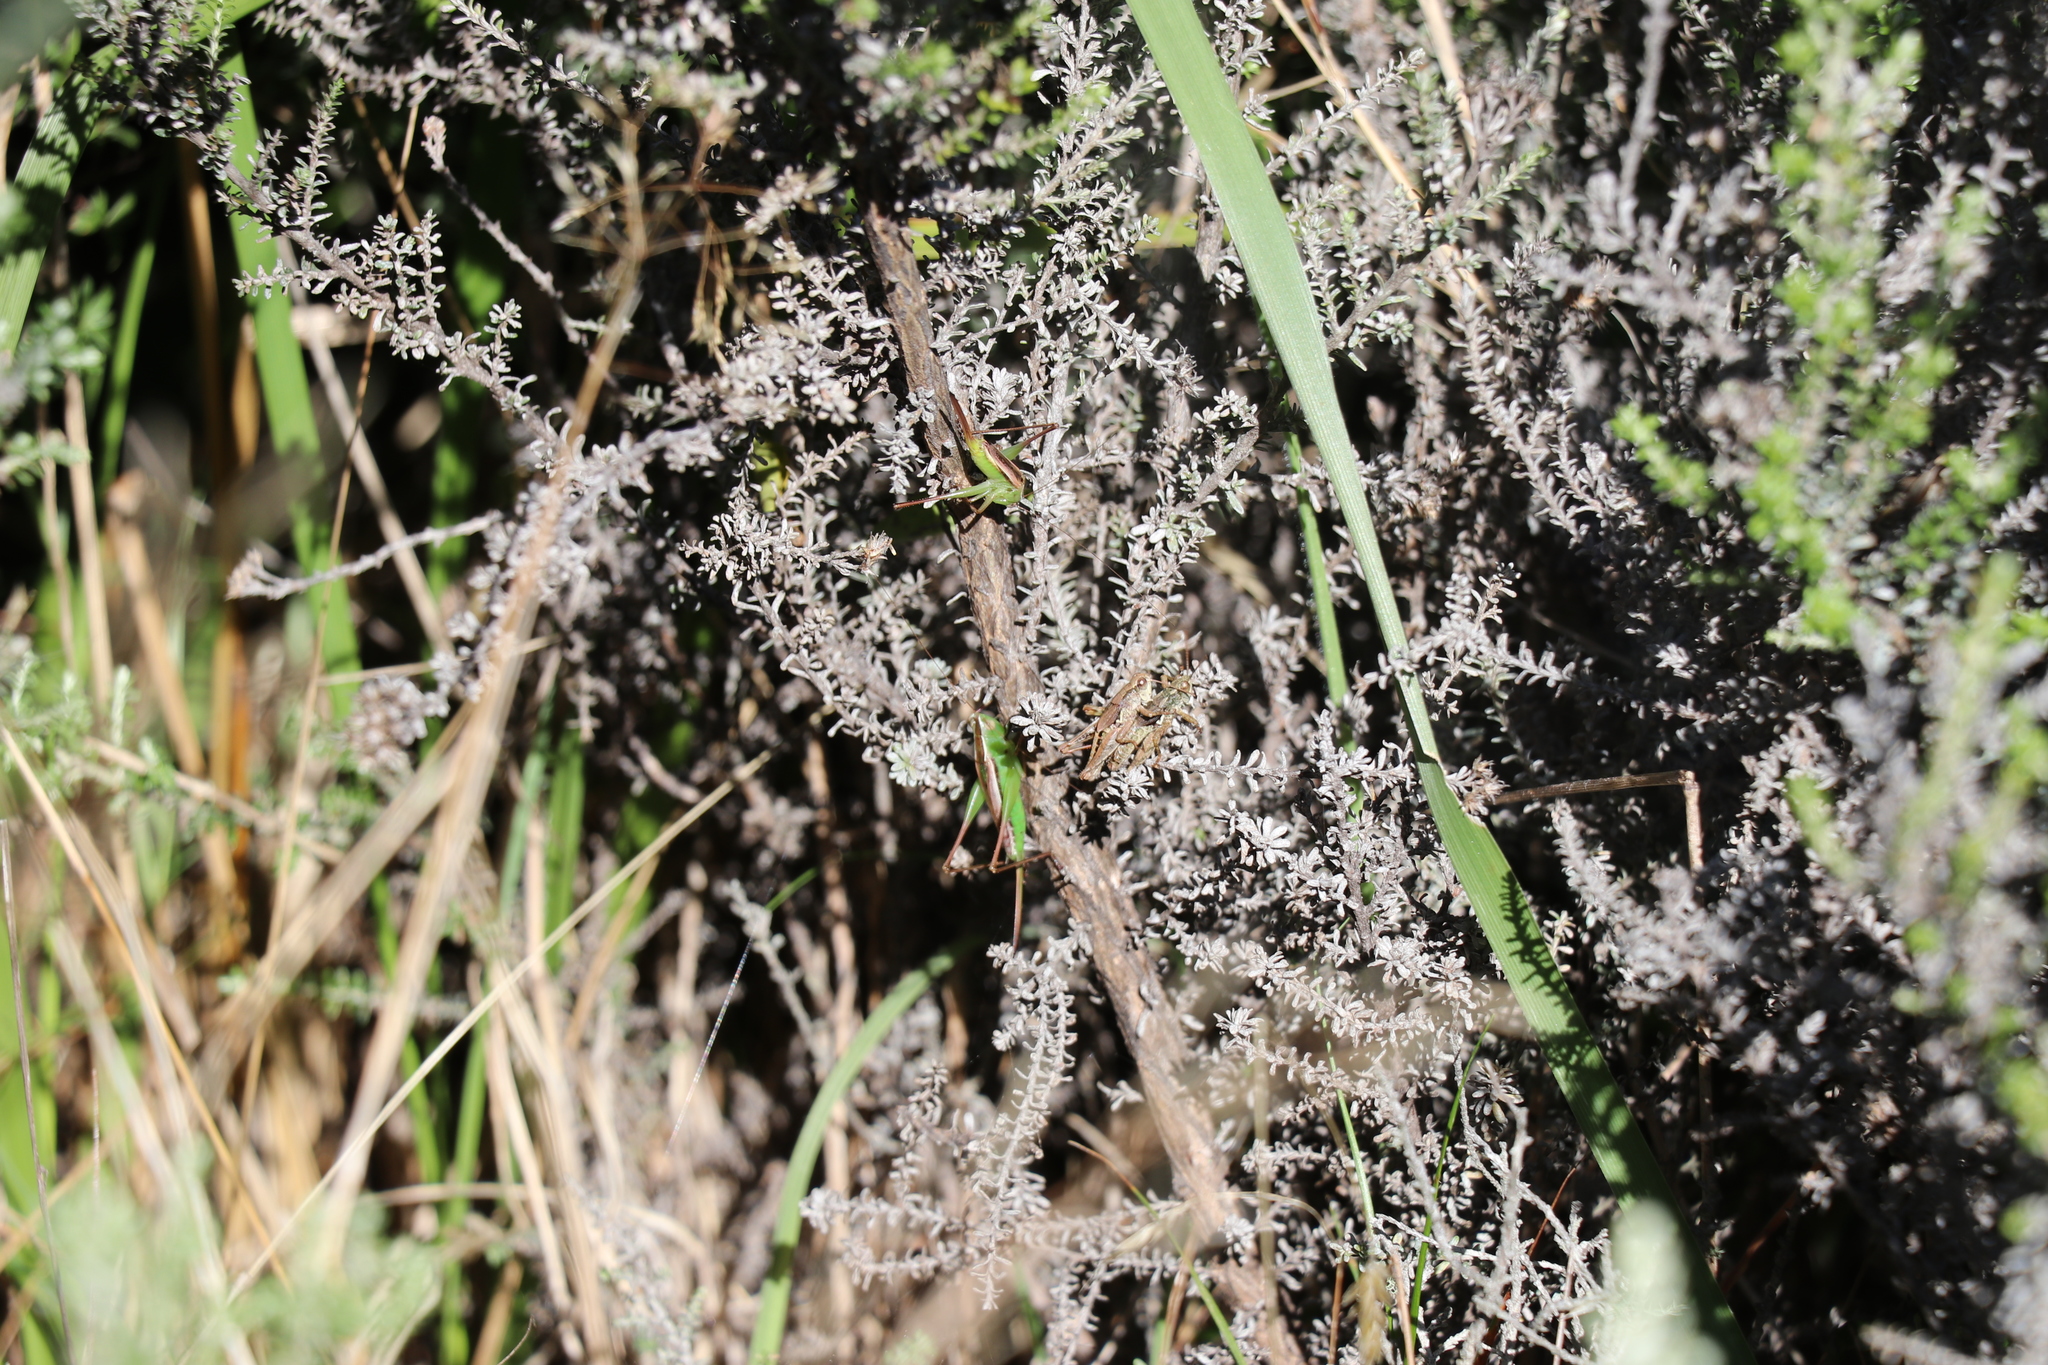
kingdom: Animalia
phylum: Arthropoda
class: Insecta
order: Orthoptera
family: Acrididae
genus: Phaulacridium
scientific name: Phaulacridium marginale
